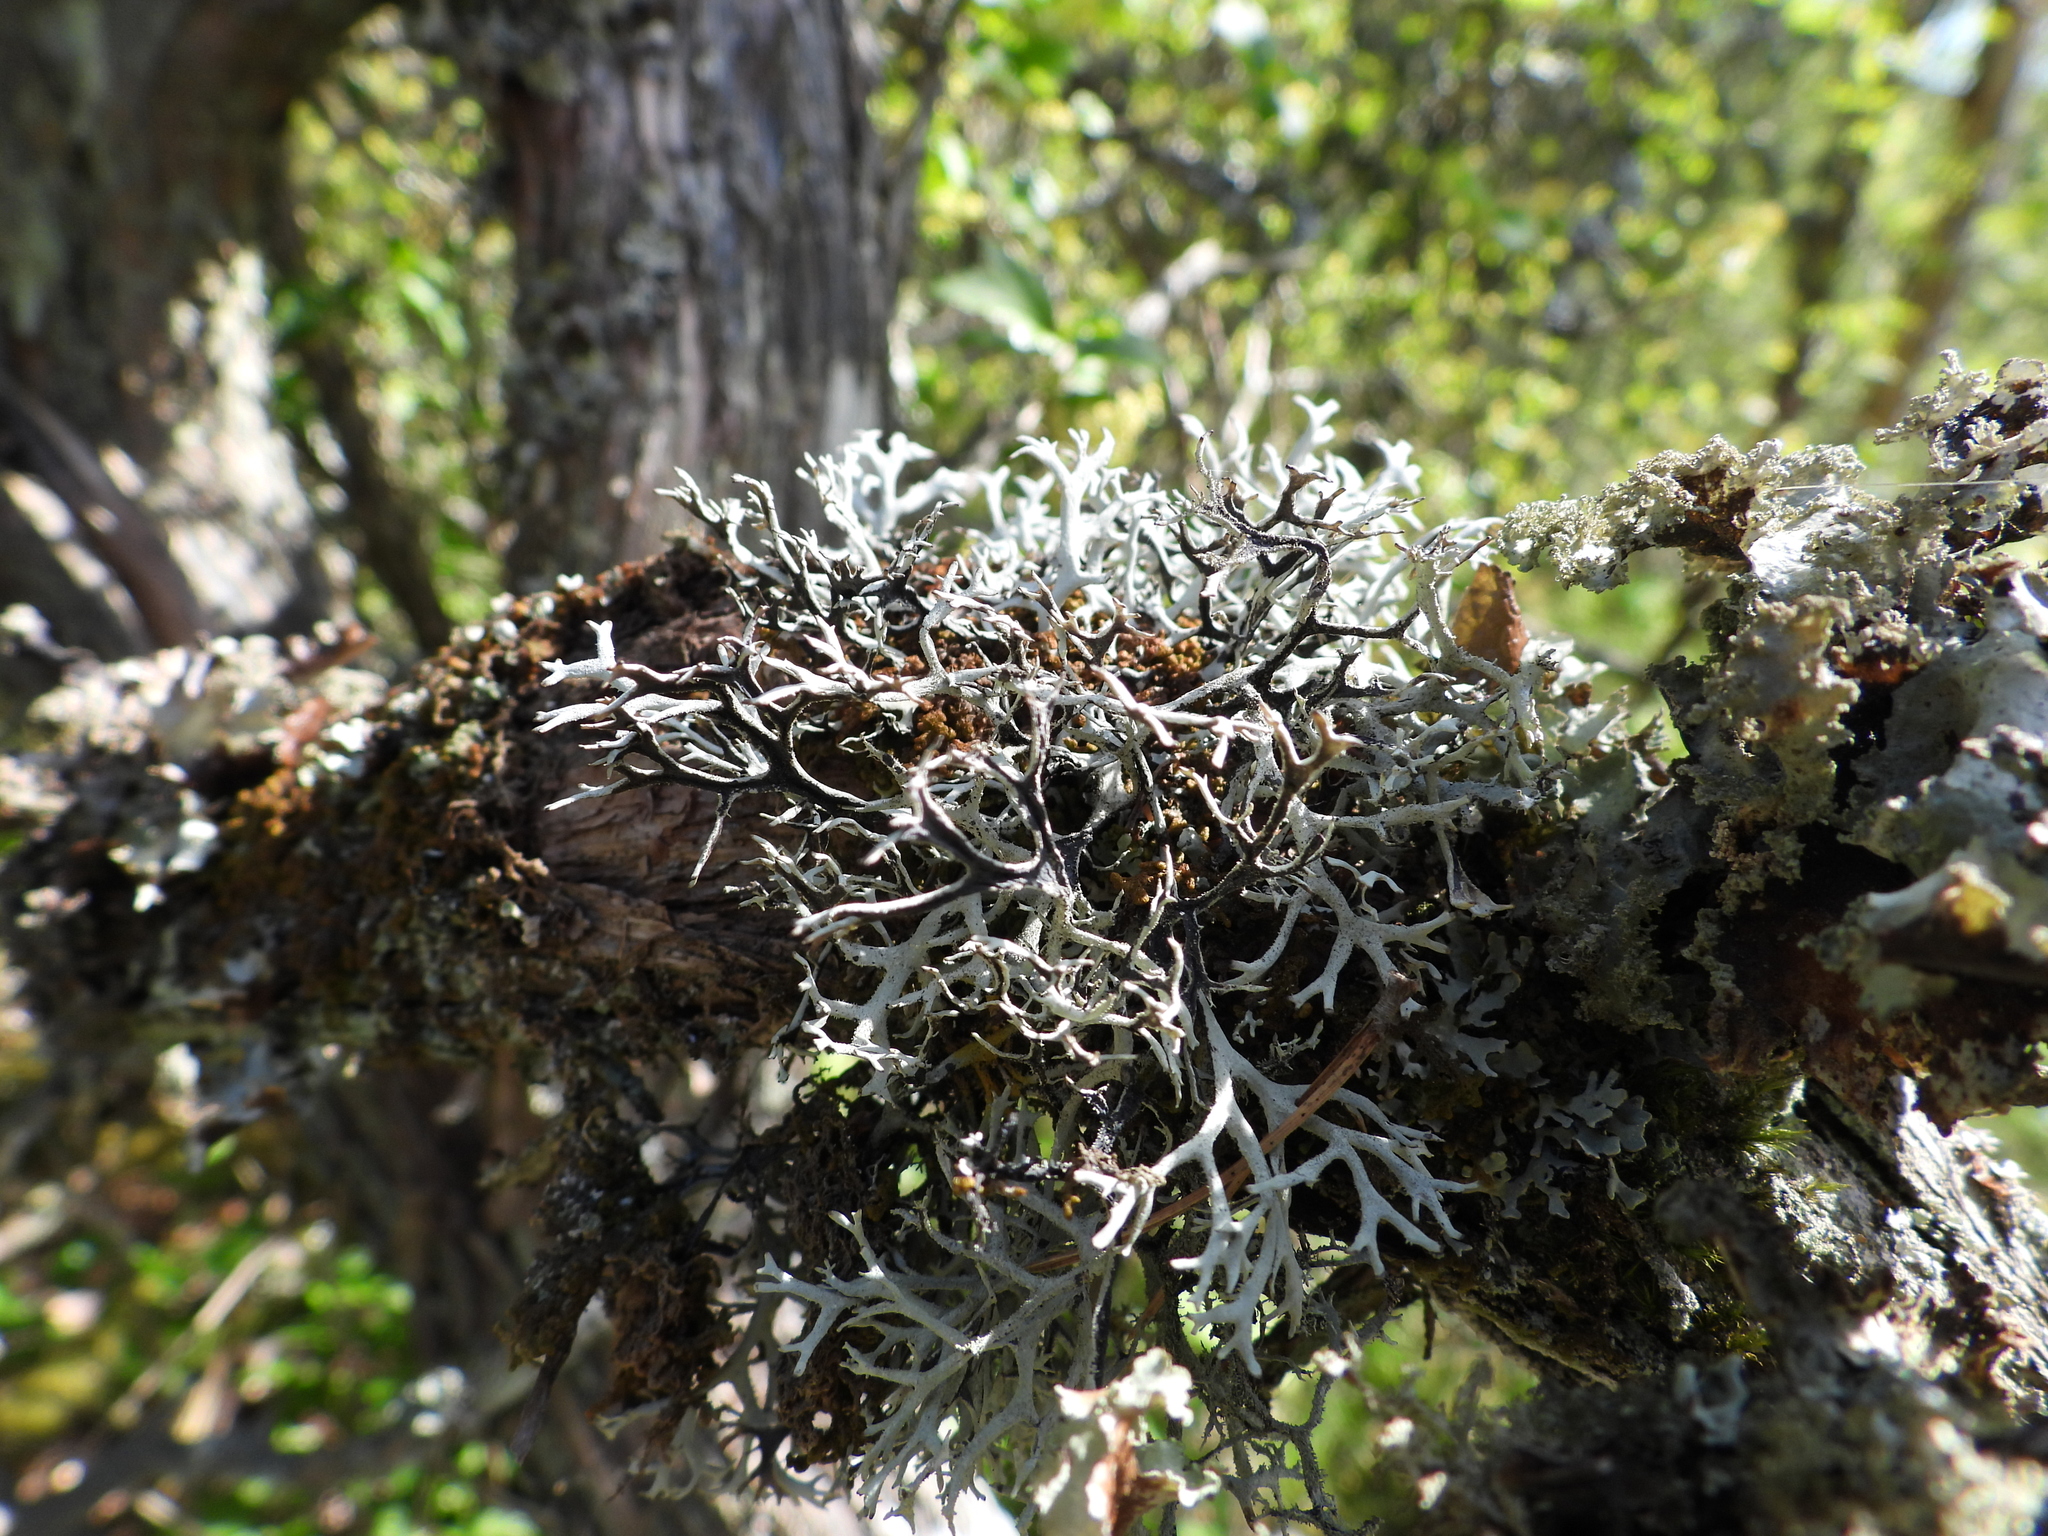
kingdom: Fungi
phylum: Ascomycota
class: Lecanoromycetes
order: Lecanorales
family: Parmeliaceae
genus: Pseudevernia
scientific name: Pseudevernia furfuracea
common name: Tree moss
